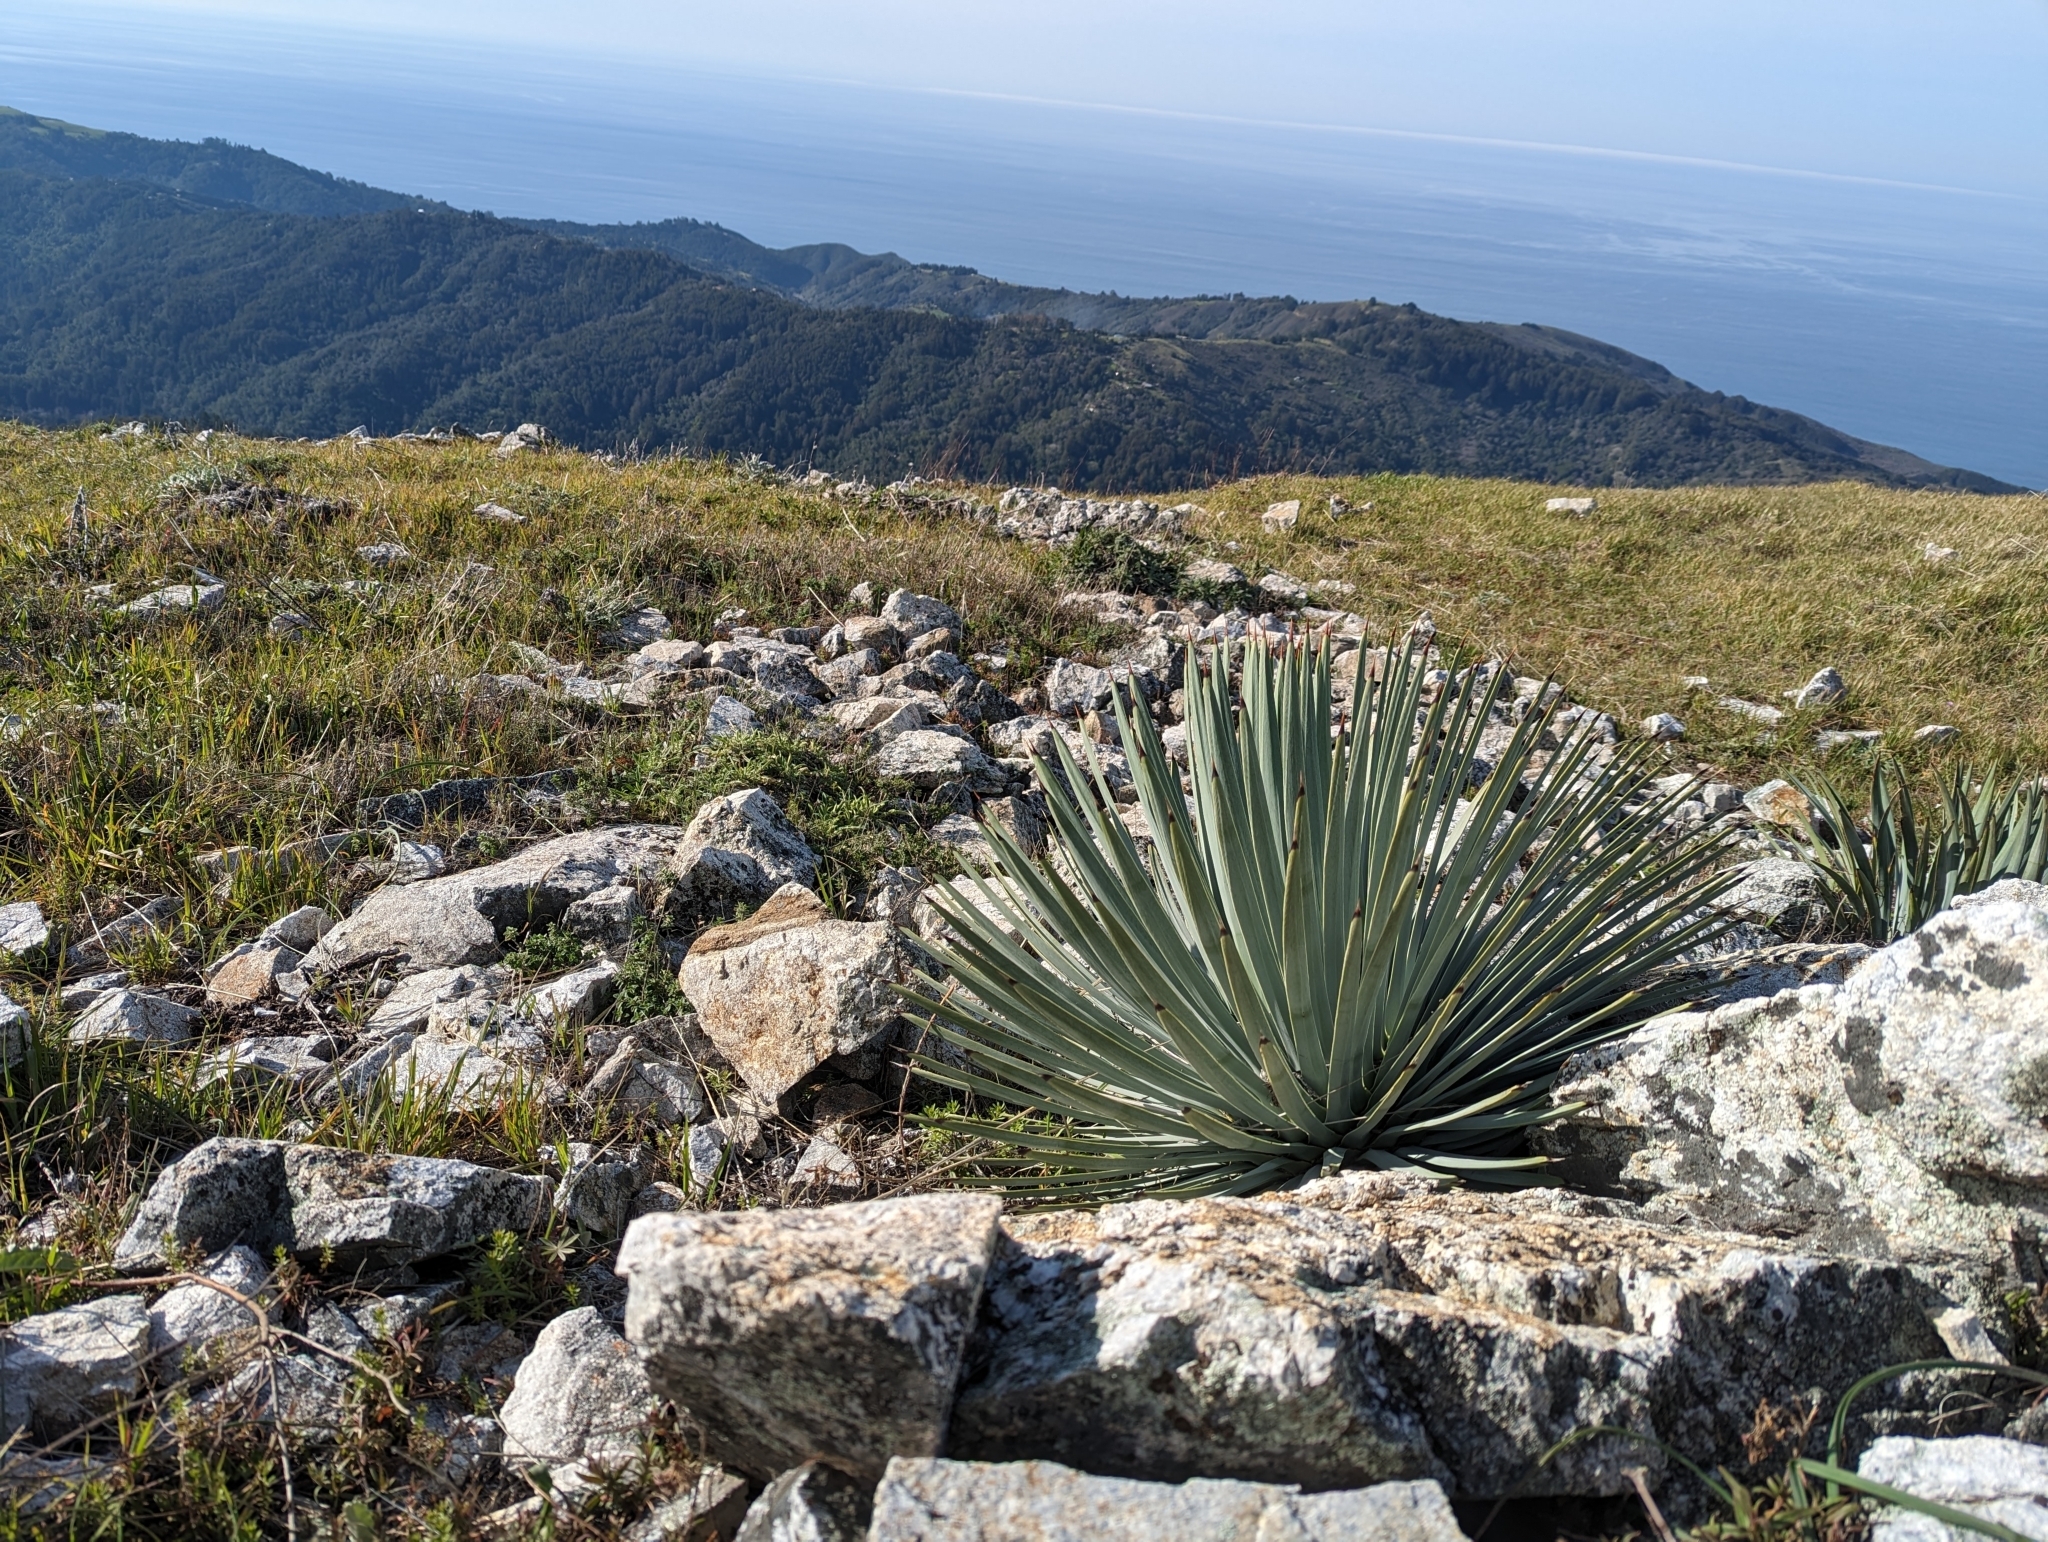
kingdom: Plantae
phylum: Tracheophyta
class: Liliopsida
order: Asparagales
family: Asparagaceae
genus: Hesperoyucca
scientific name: Hesperoyucca whipplei
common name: Our lord's-candle
